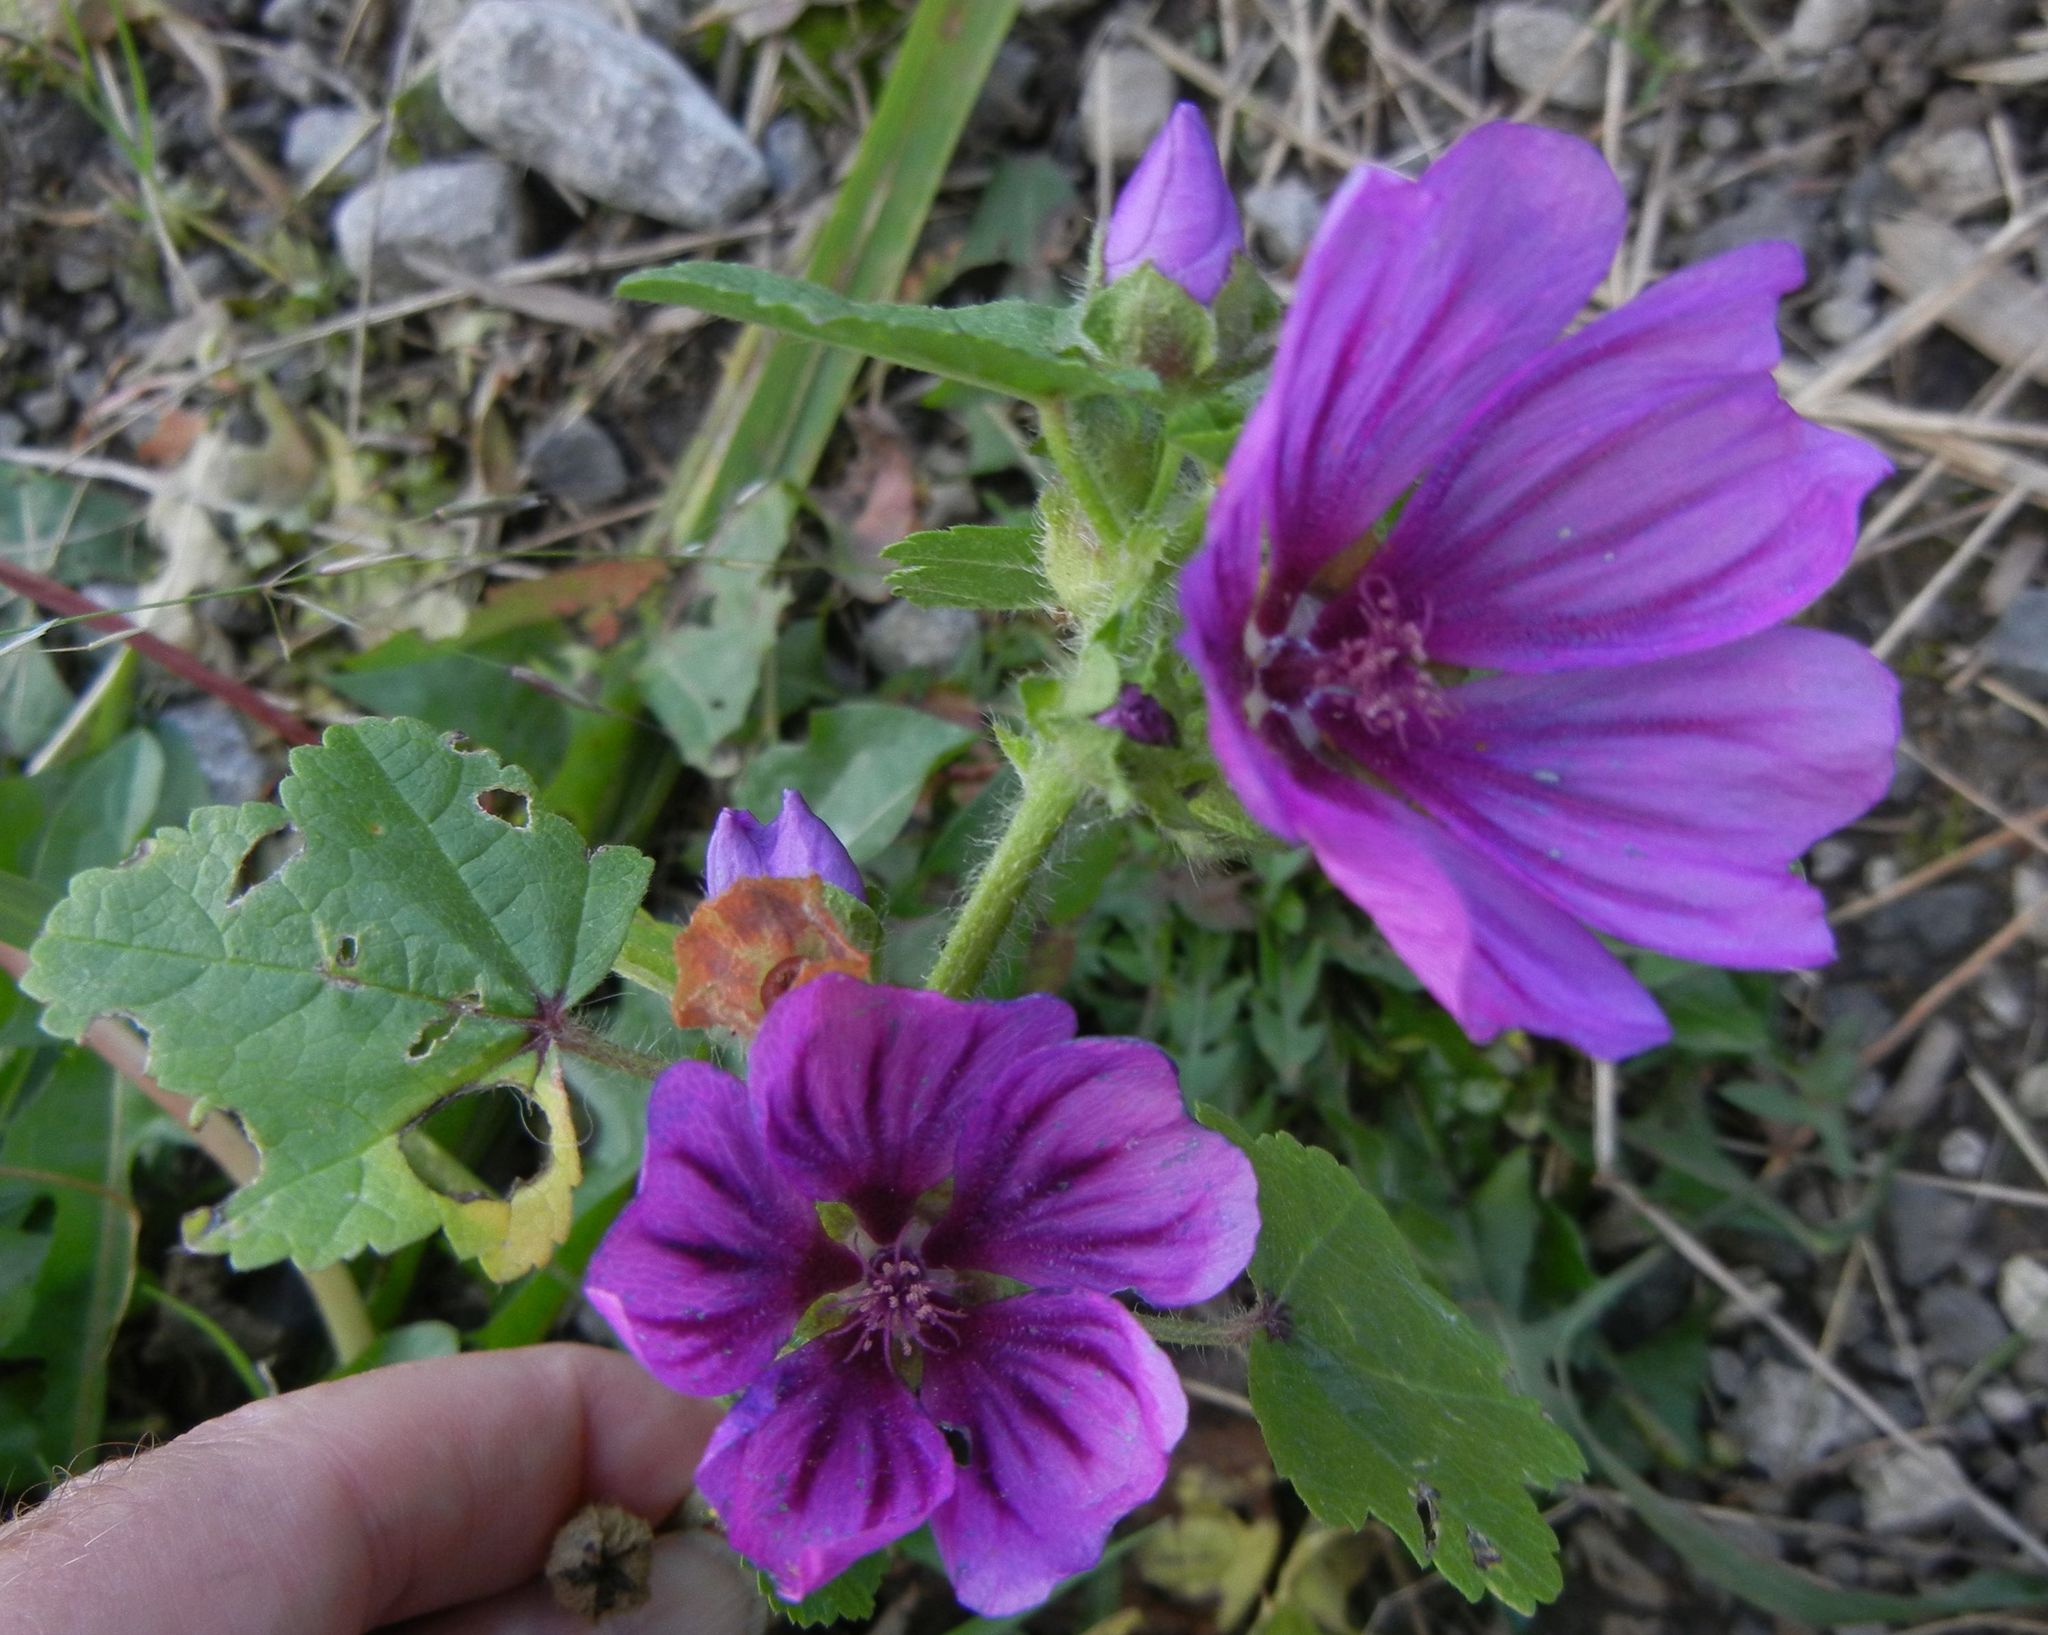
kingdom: Plantae
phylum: Tracheophyta
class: Magnoliopsida
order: Malvales
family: Malvaceae
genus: Malva
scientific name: Malva sylvestris
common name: Common mallow
